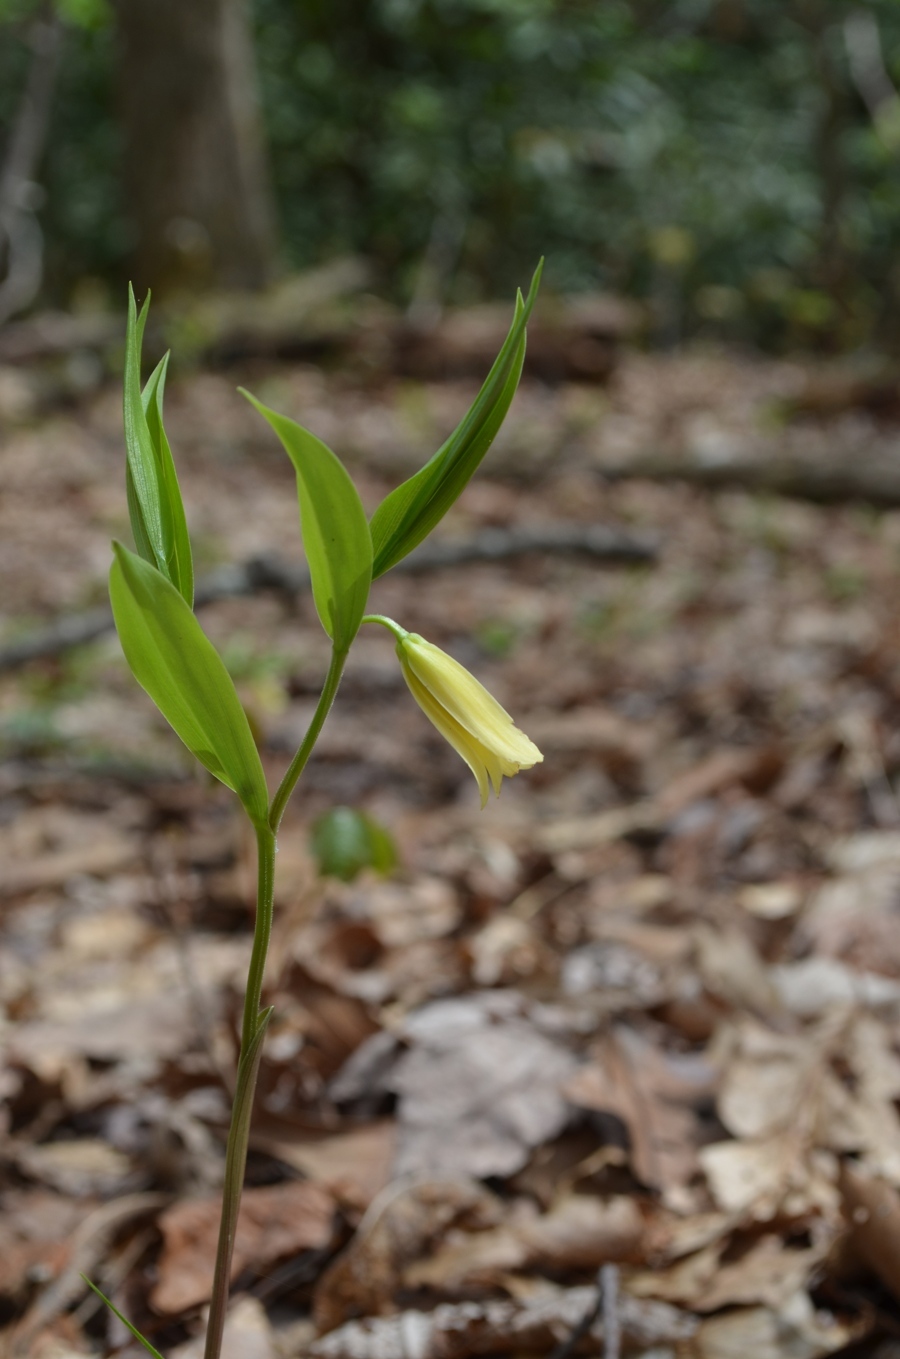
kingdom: Plantae
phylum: Tracheophyta
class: Liliopsida
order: Liliales
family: Colchicaceae
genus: Uvularia
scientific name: Uvularia puberula
